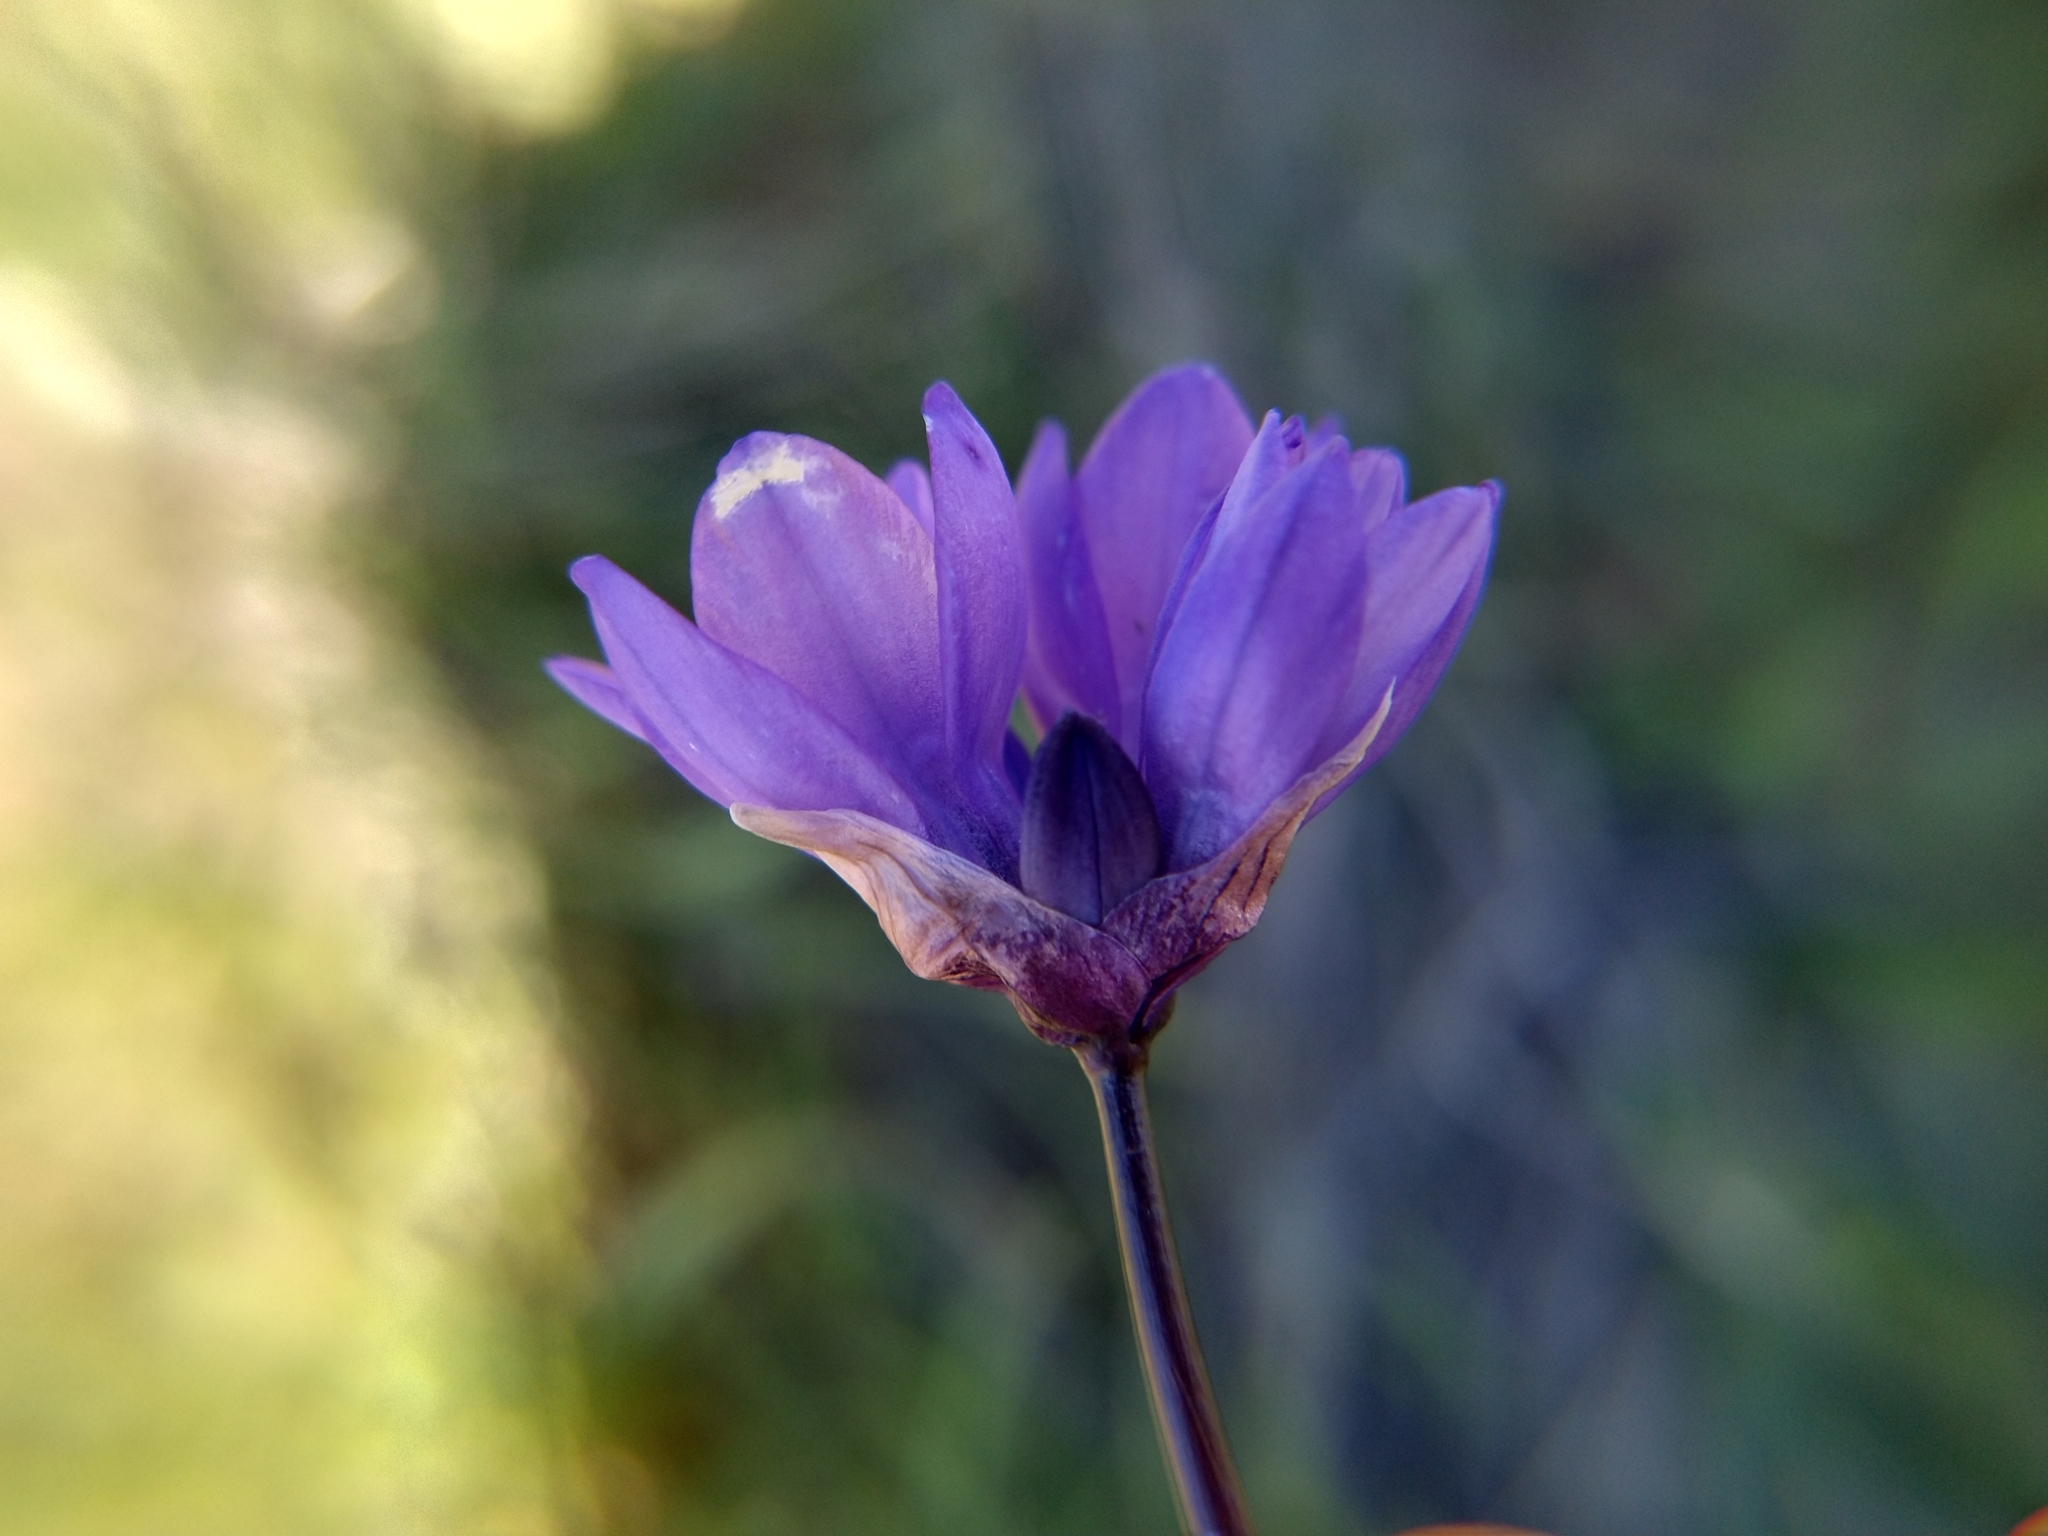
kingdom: Plantae
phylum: Tracheophyta
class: Liliopsida
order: Asparagales
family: Asparagaceae
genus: Dipterostemon
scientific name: Dipterostemon capitatus
